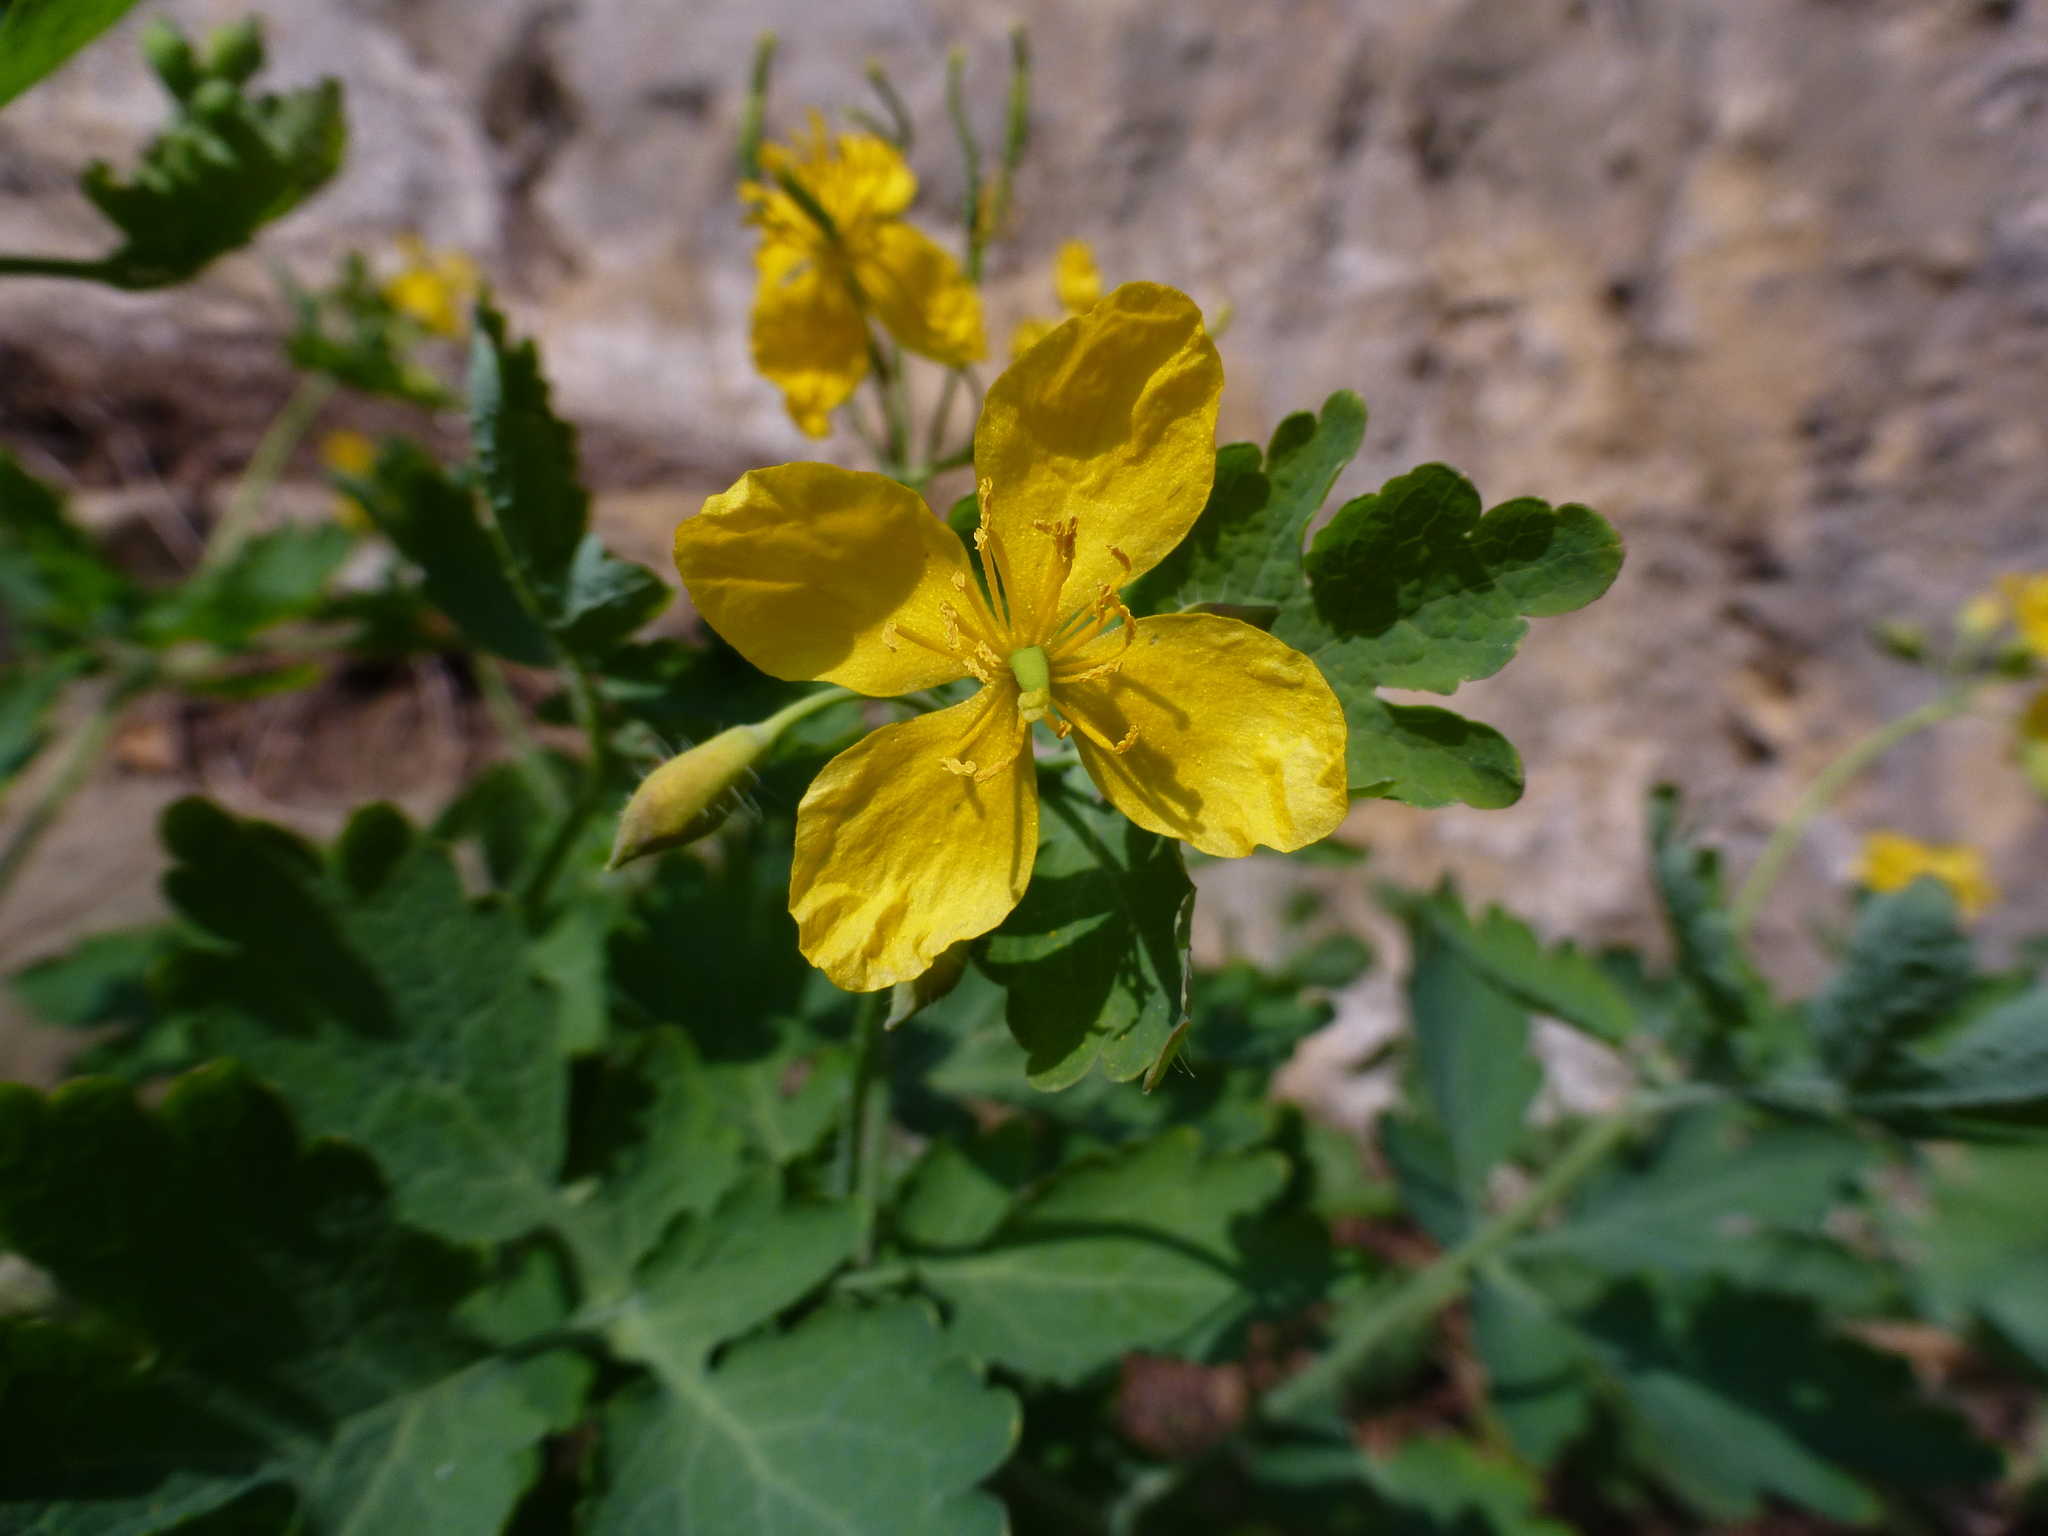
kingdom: Plantae
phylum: Tracheophyta
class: Magnoliopsida
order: Ranunculales
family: Papaveraceae
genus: Chelidonium
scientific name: Chelidonium majus
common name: Greater celandine
